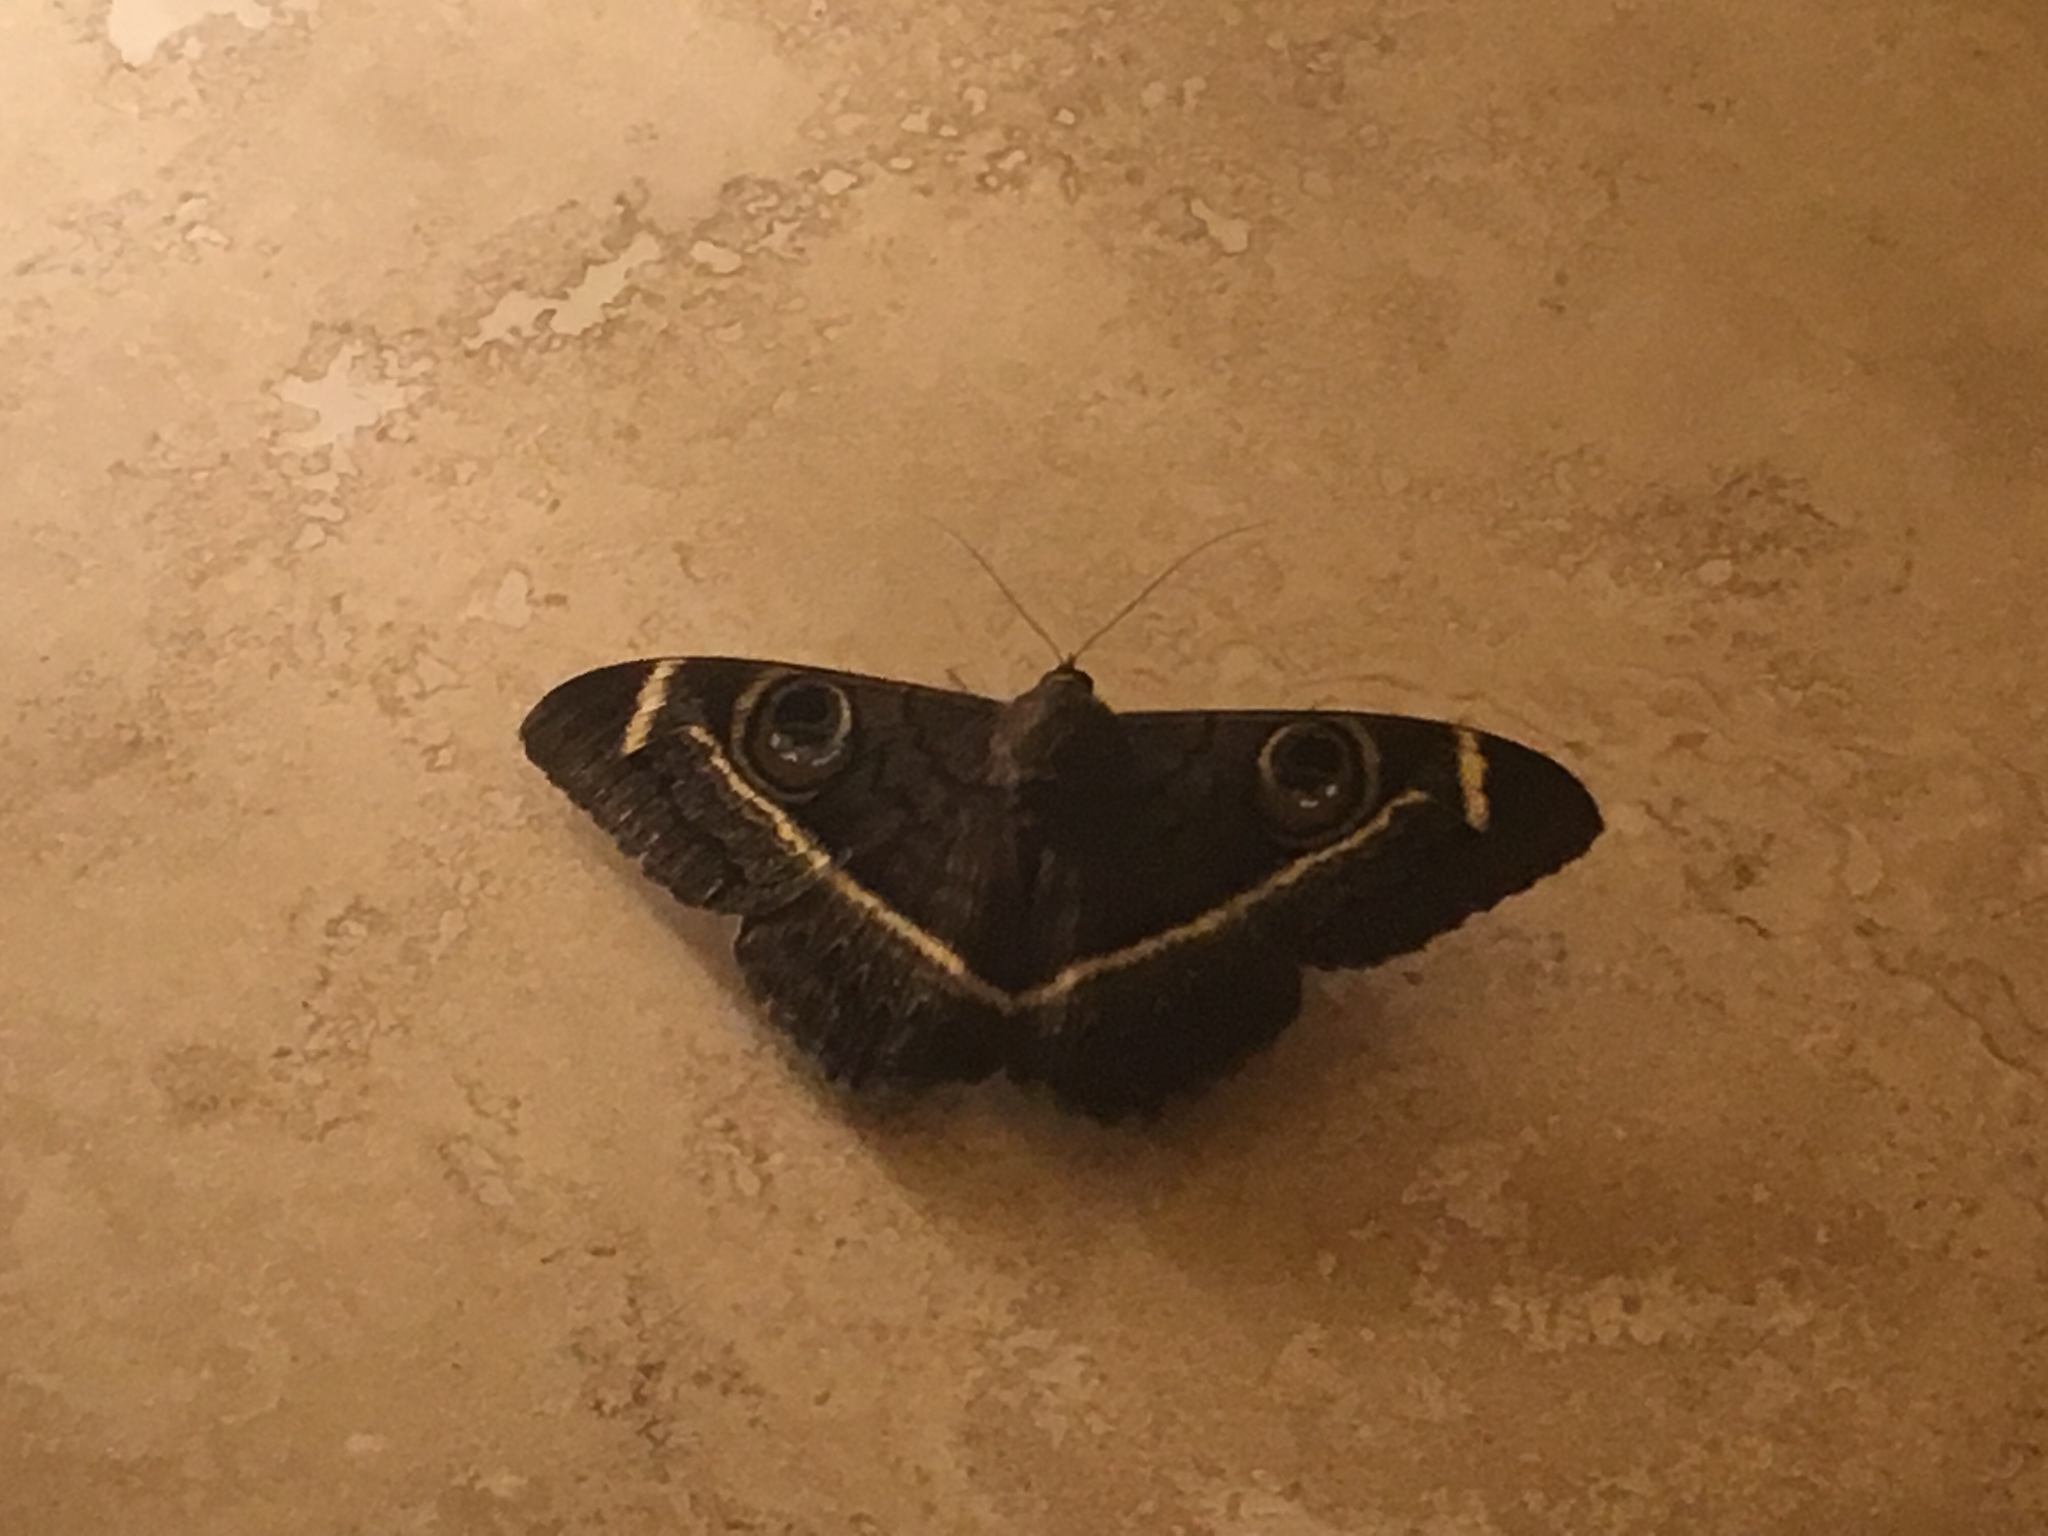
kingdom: Animalia
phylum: Arthropoda
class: Insecta
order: Lepidoptera
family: Erebidae
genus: Cyligramma
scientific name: Cyligramma latona
